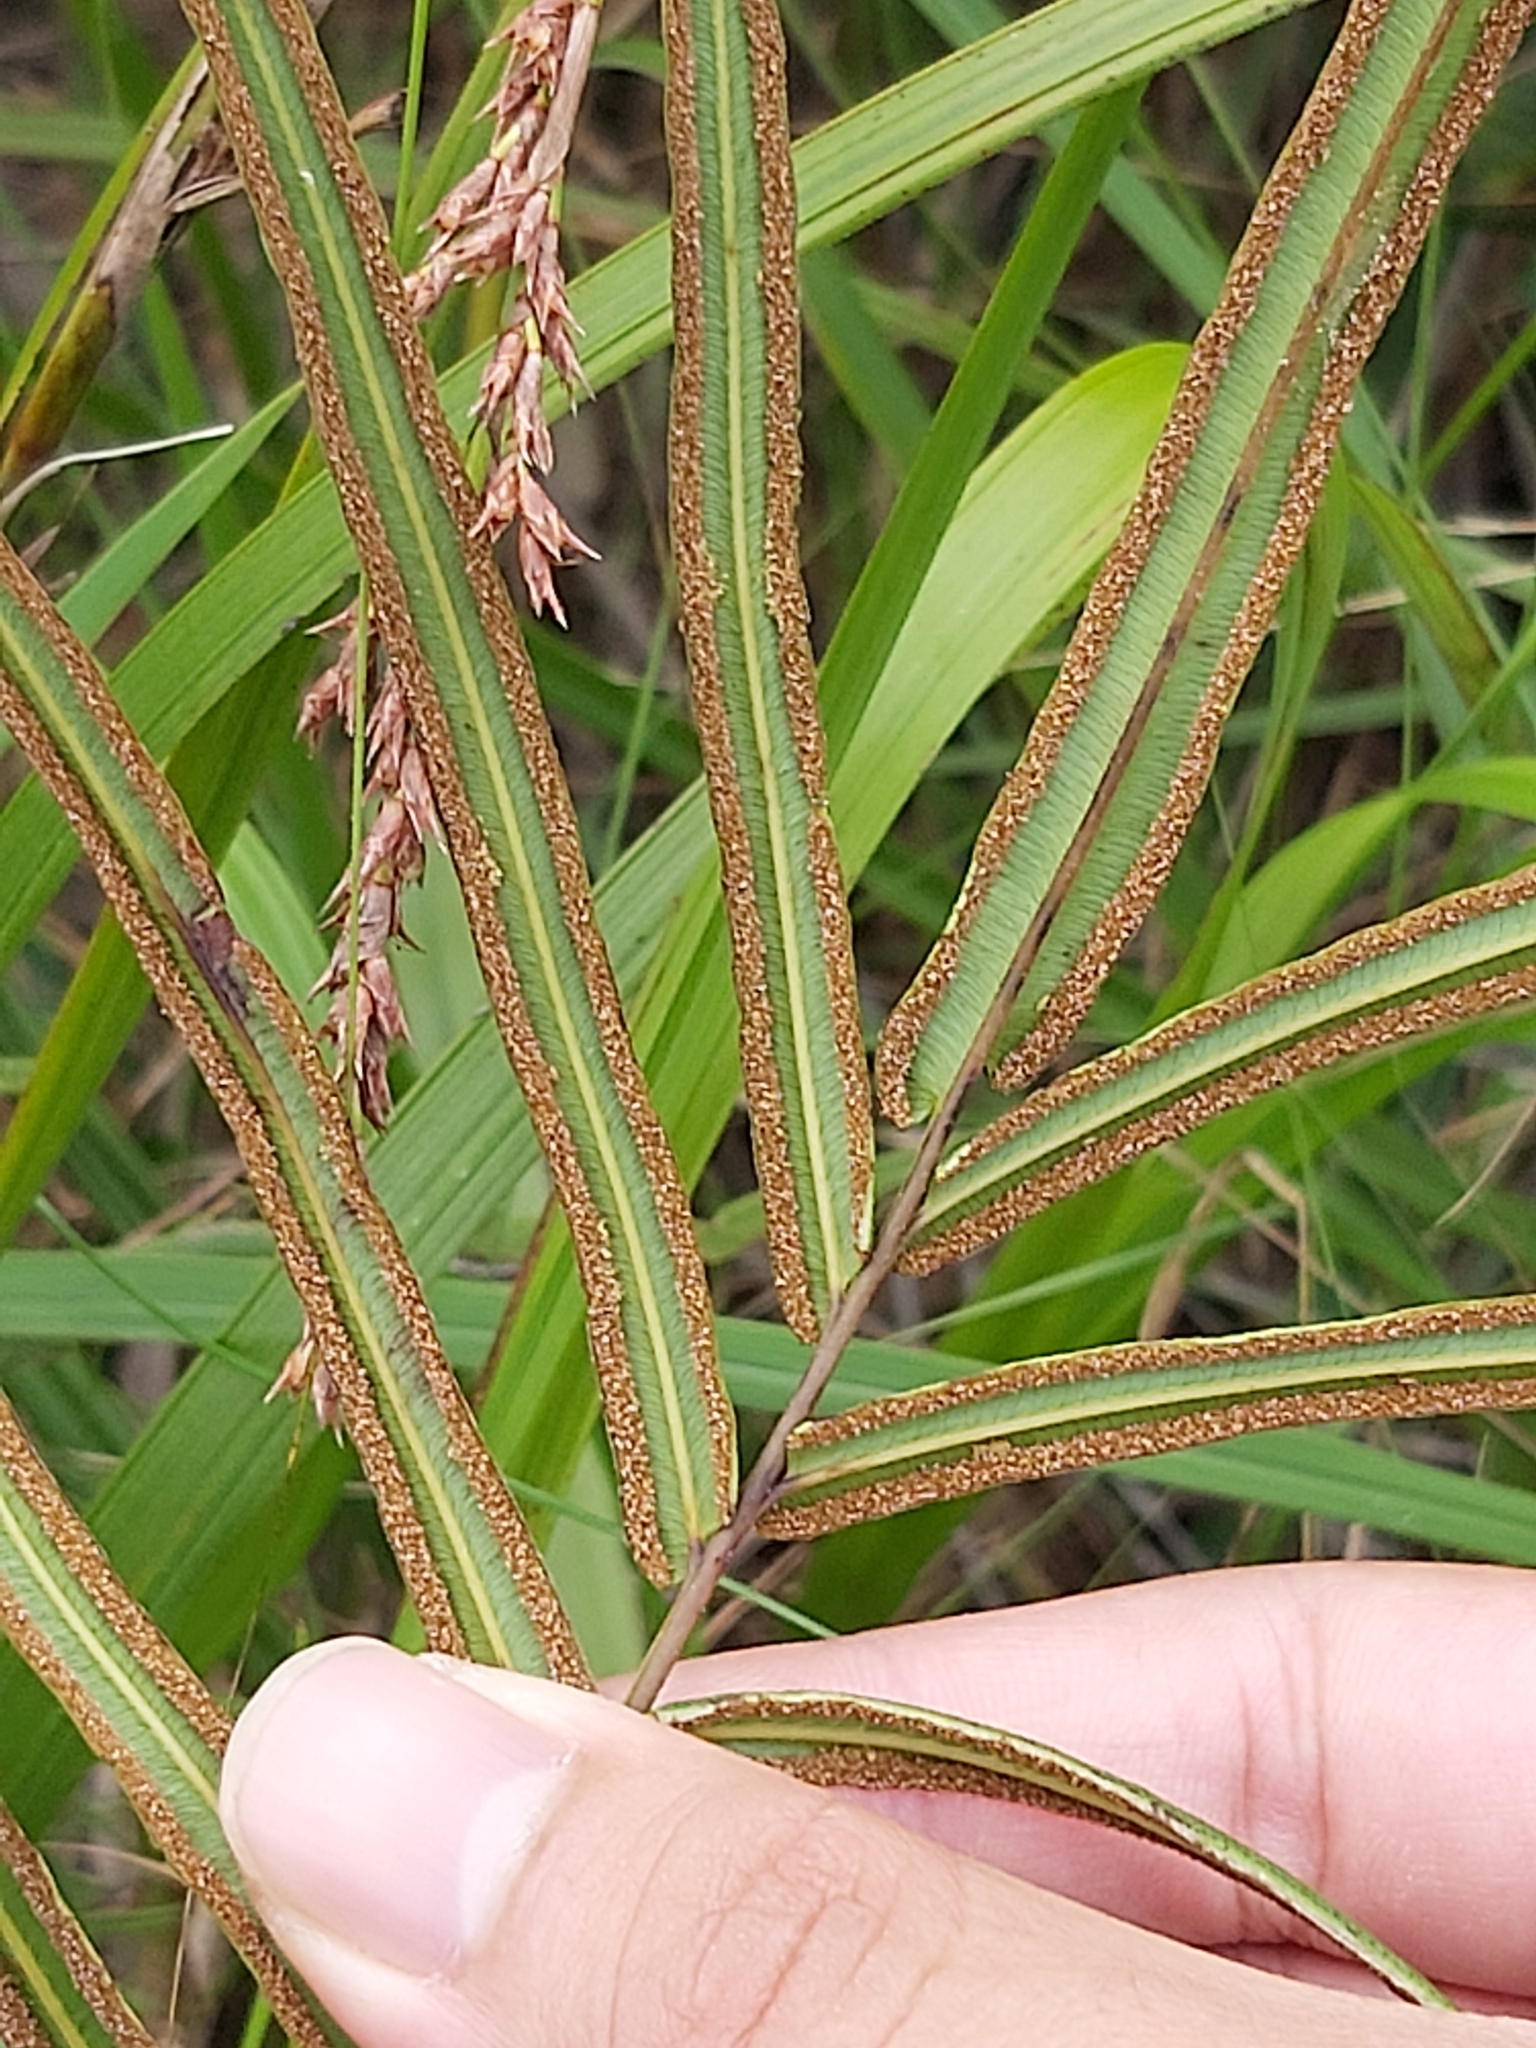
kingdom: Plantae
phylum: Tracheophyta
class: Polypodiopsida
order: Polypodiales
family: Pteridaceae
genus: Pteris
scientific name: Pteris vittata
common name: Ladder brake
